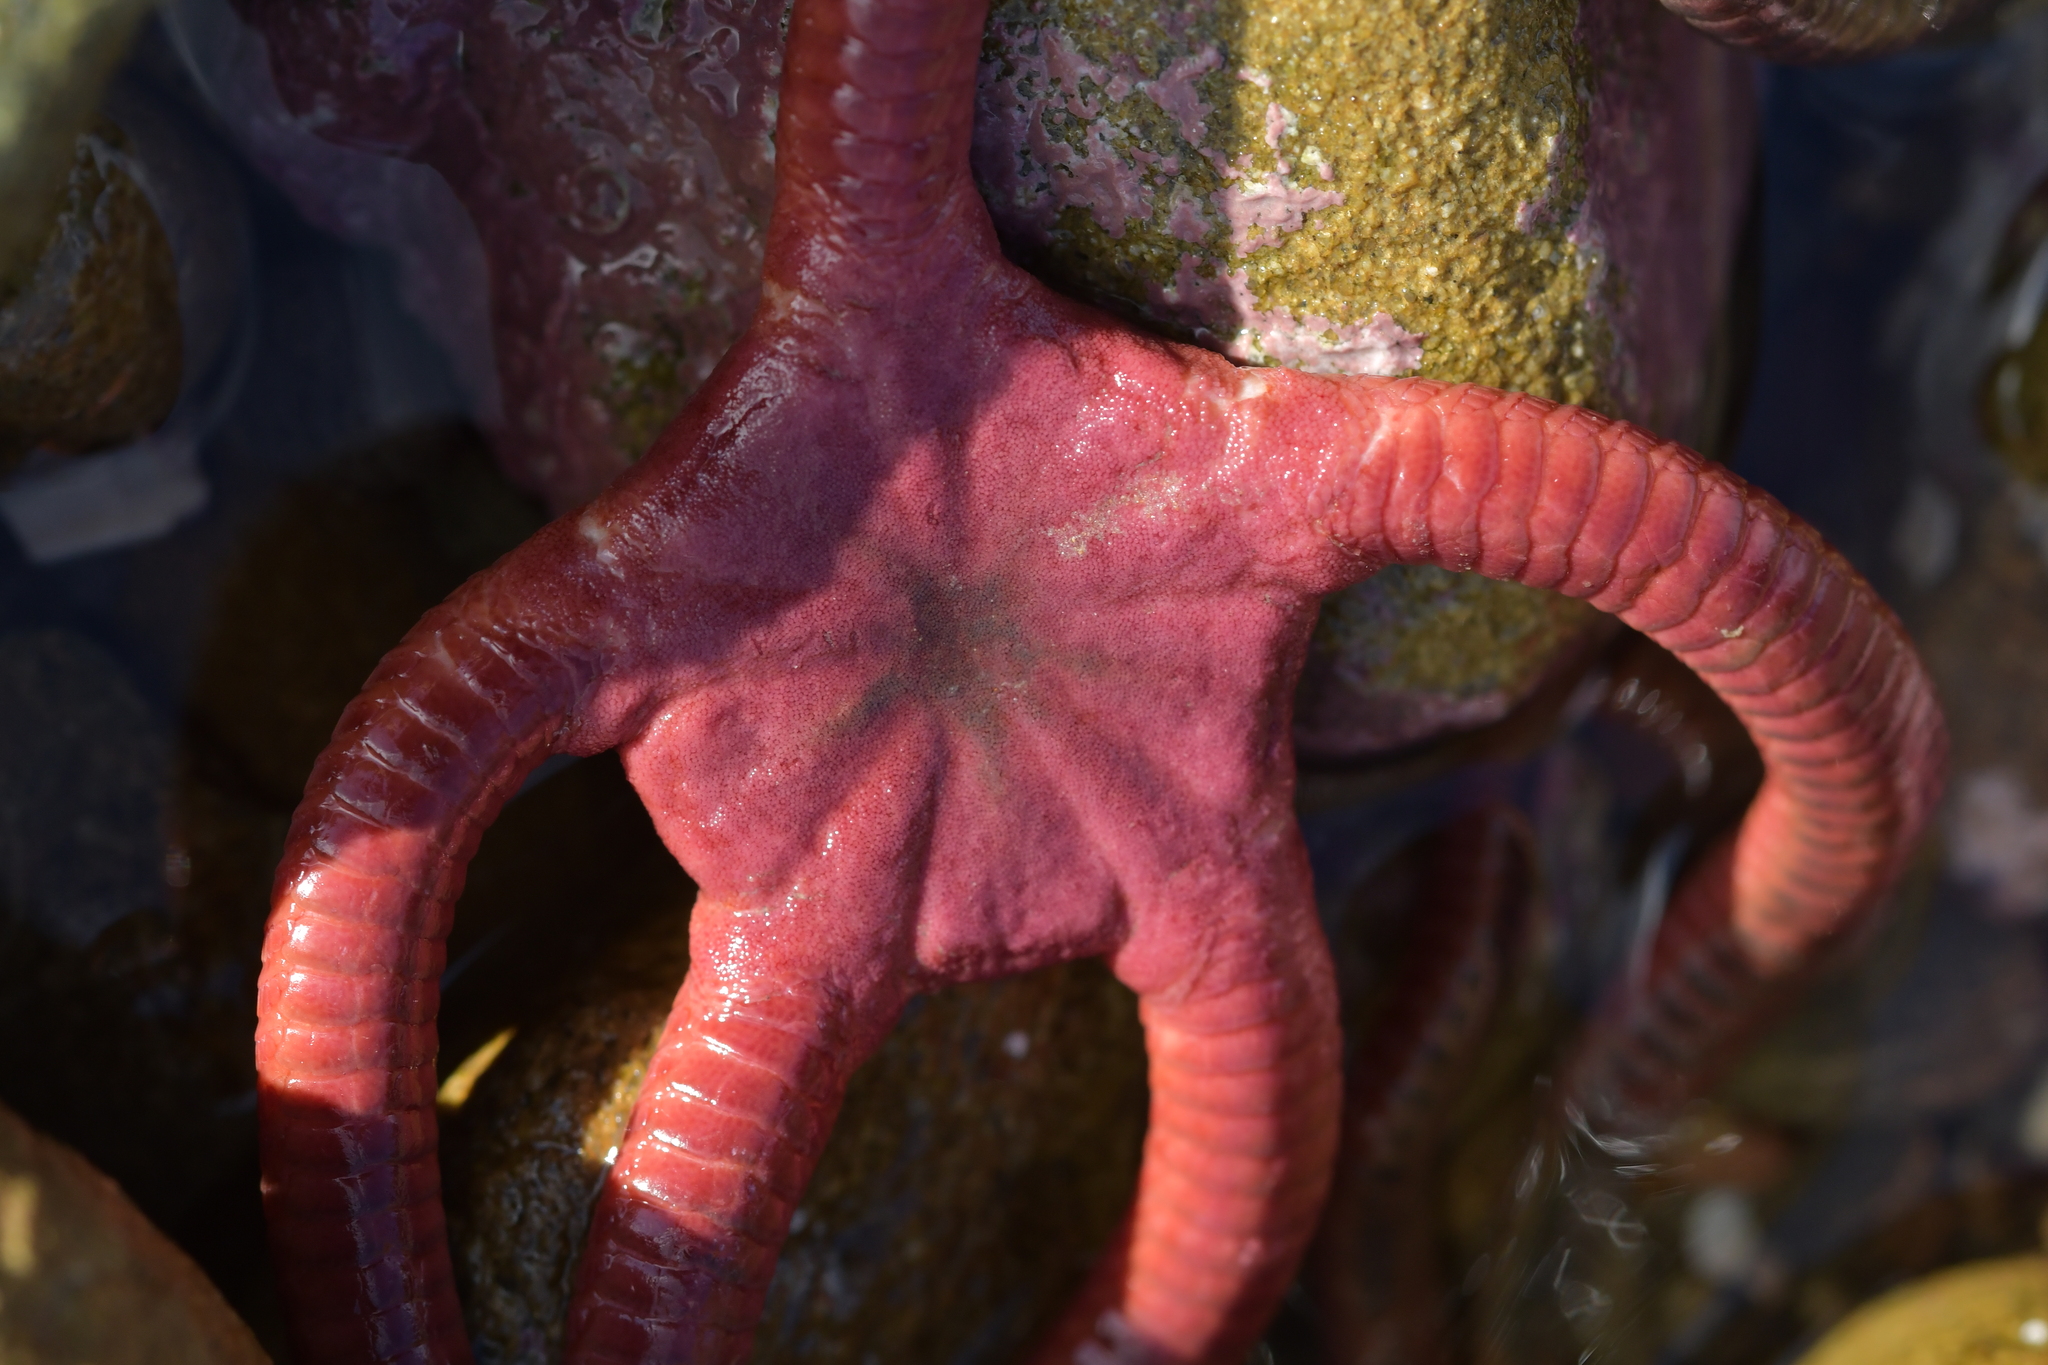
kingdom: Animalia
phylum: Echinodermata
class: Ophiuroidea
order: Ophiacanthida
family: Ophiodermatidae
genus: Ophiopsammus
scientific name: Ophiopsammus maculata
